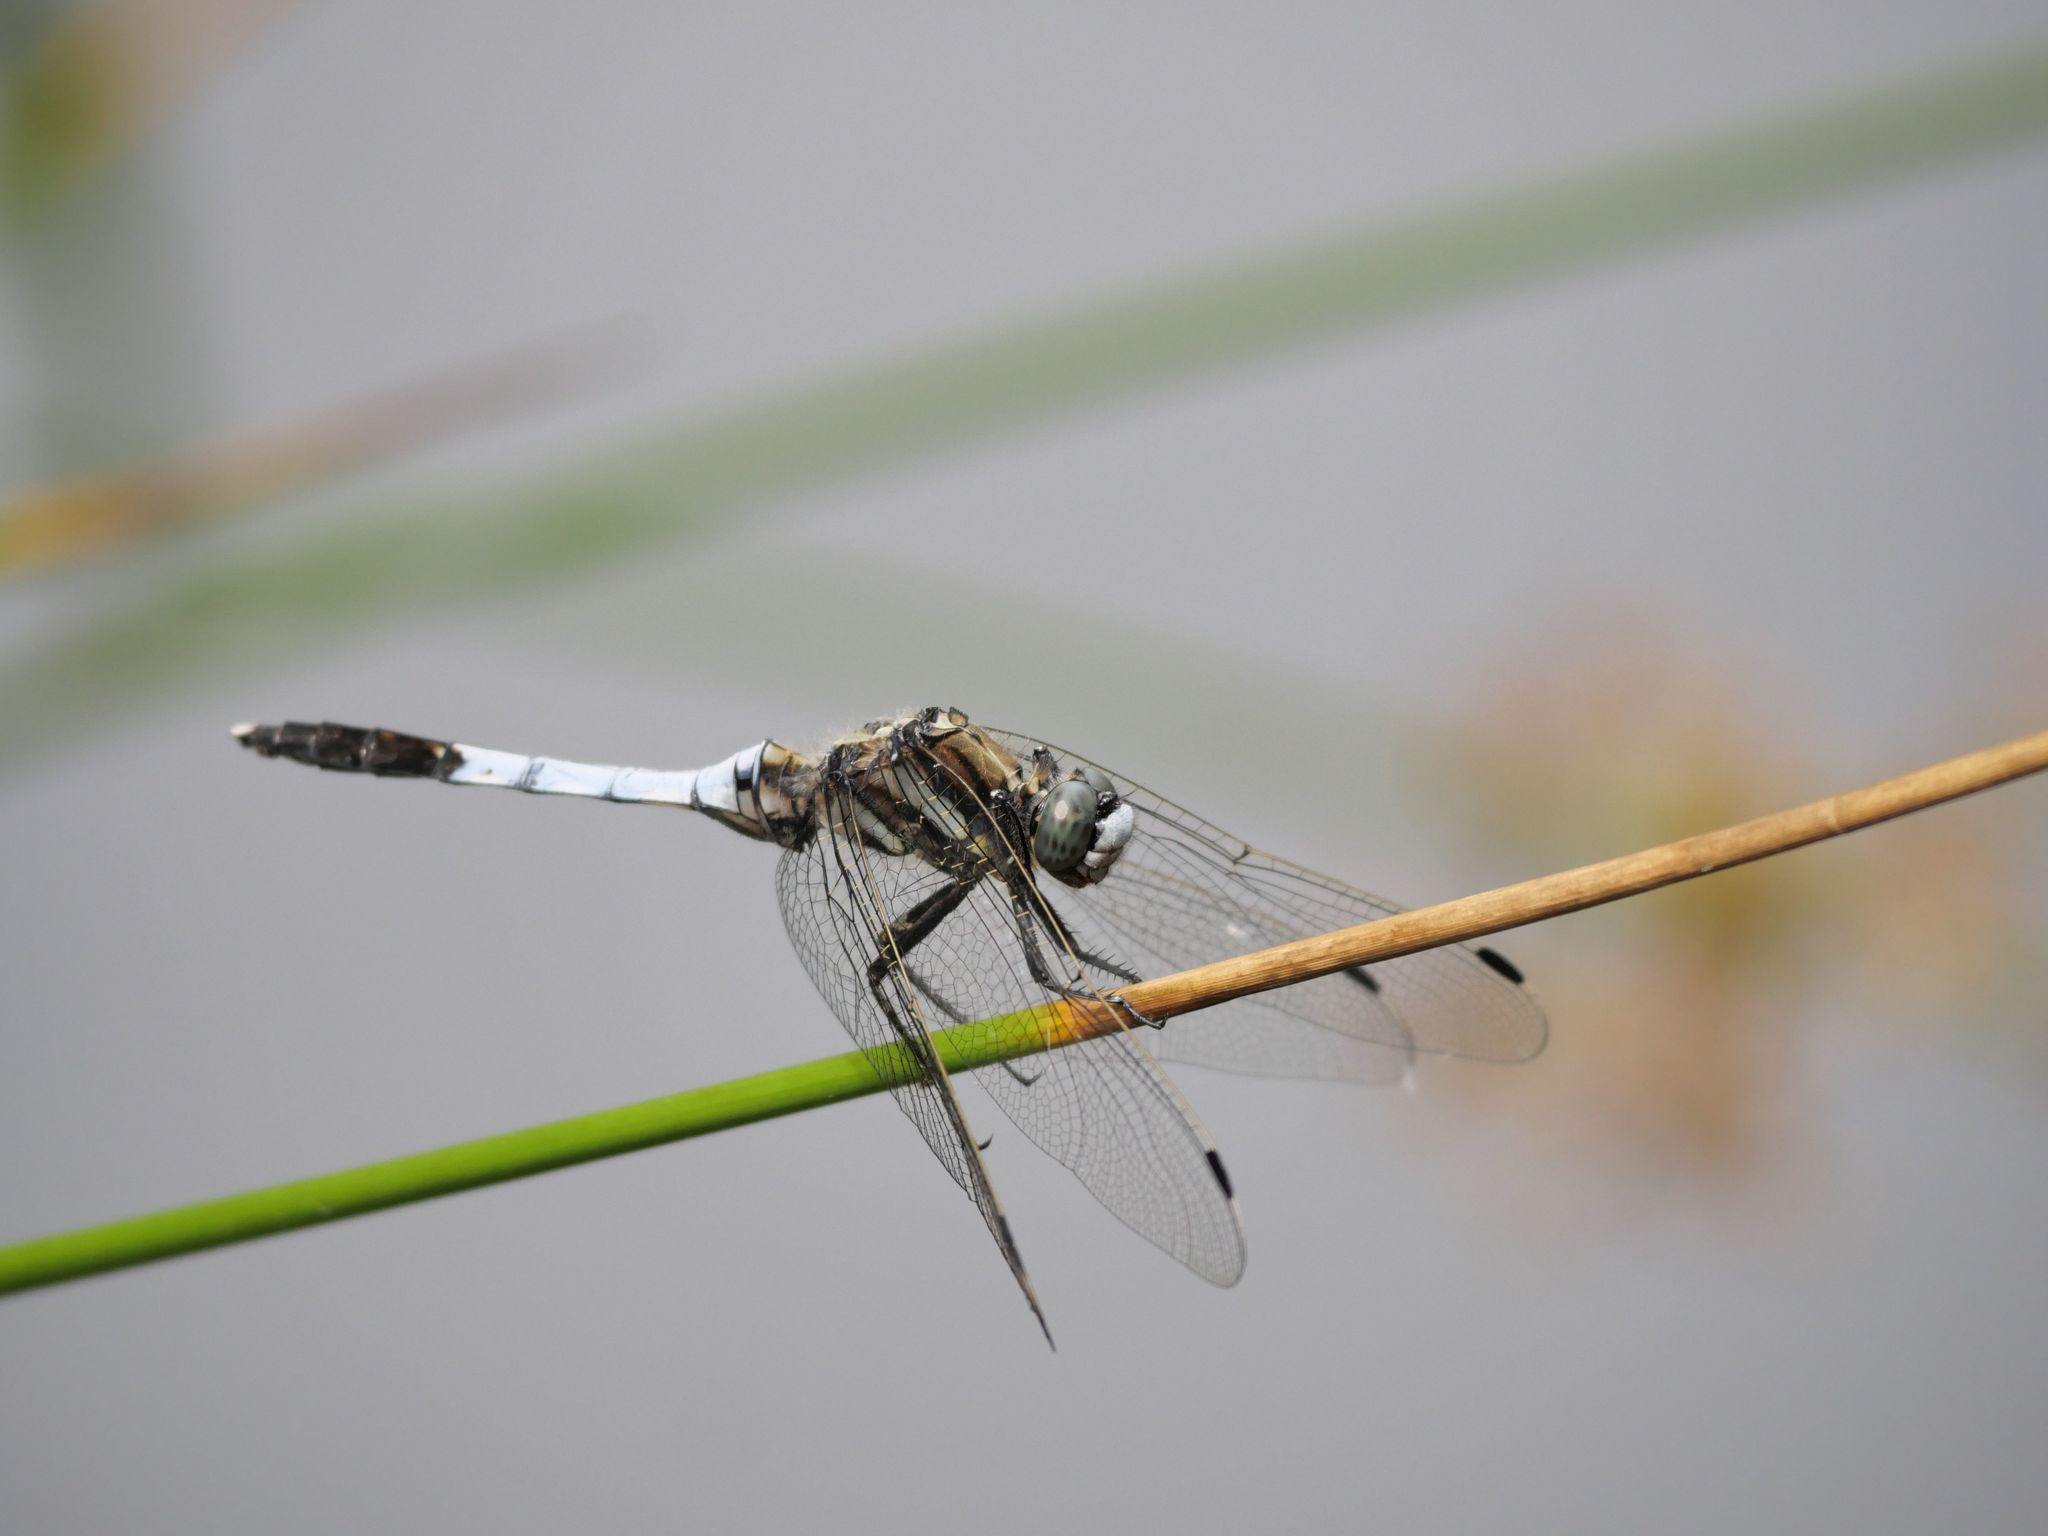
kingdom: Animalia
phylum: Arthropoda
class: Insecta
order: Odonata
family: Libellulidae
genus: Orthetrum
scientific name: Orthetrum albistylum
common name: White-tailed skimmer
